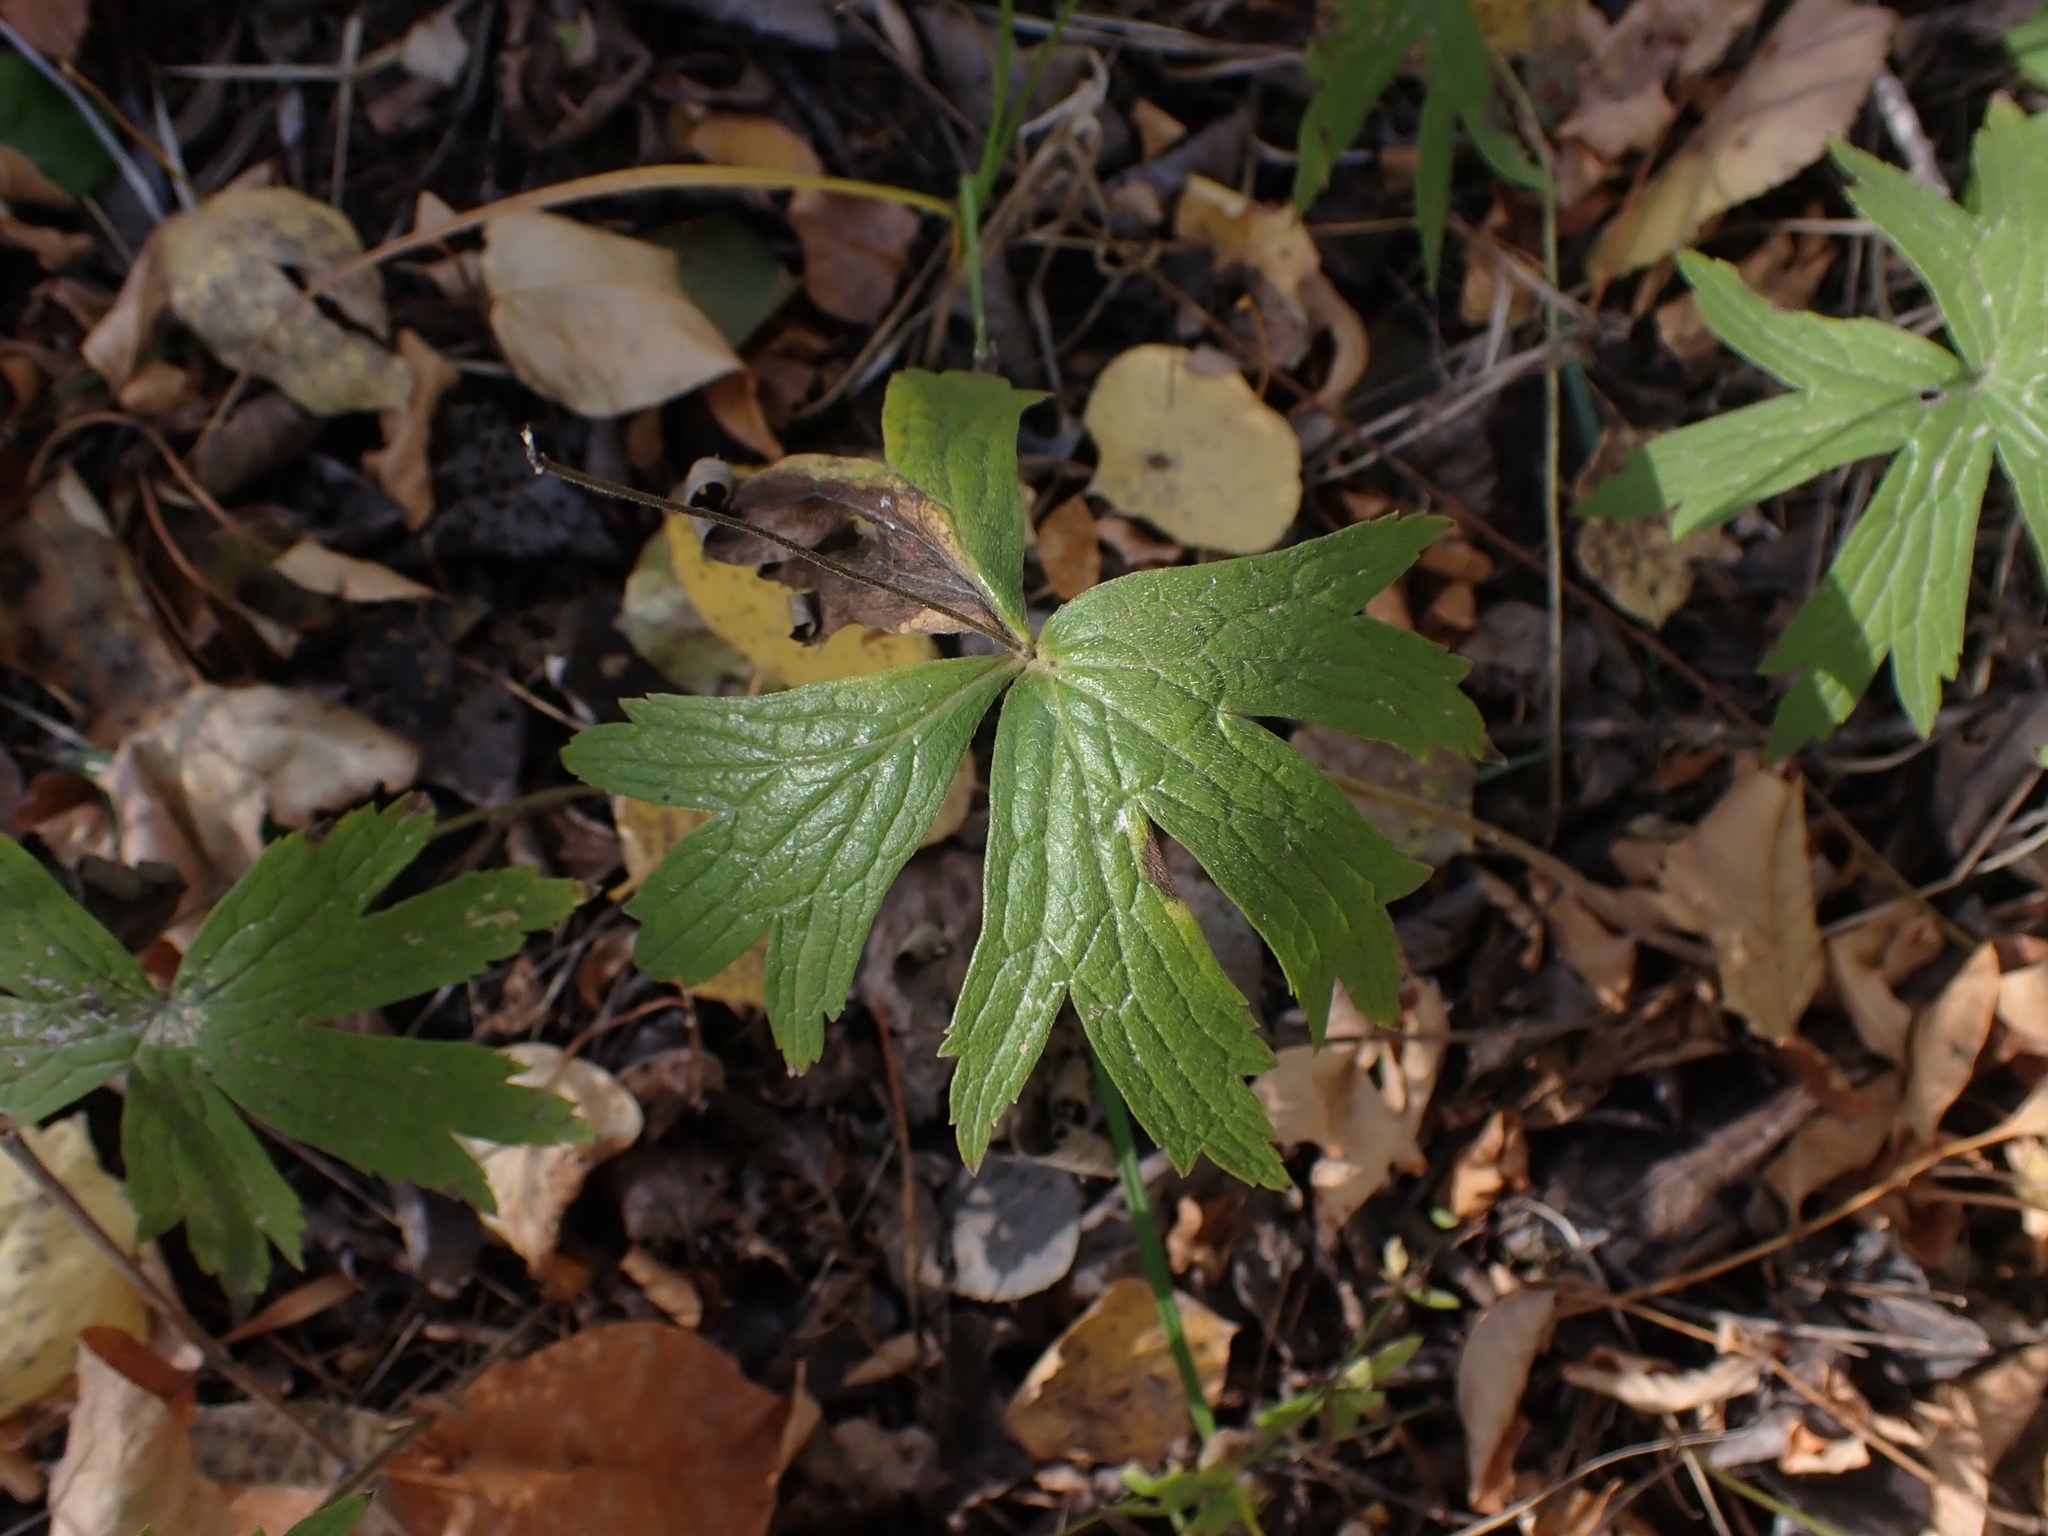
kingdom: Plantae
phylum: Tracheophyta
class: Magnoliopsida
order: Ranunculales
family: Ranunculaceae
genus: Anemonastrum
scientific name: Anemonastrum canadense
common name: Canada anemone
